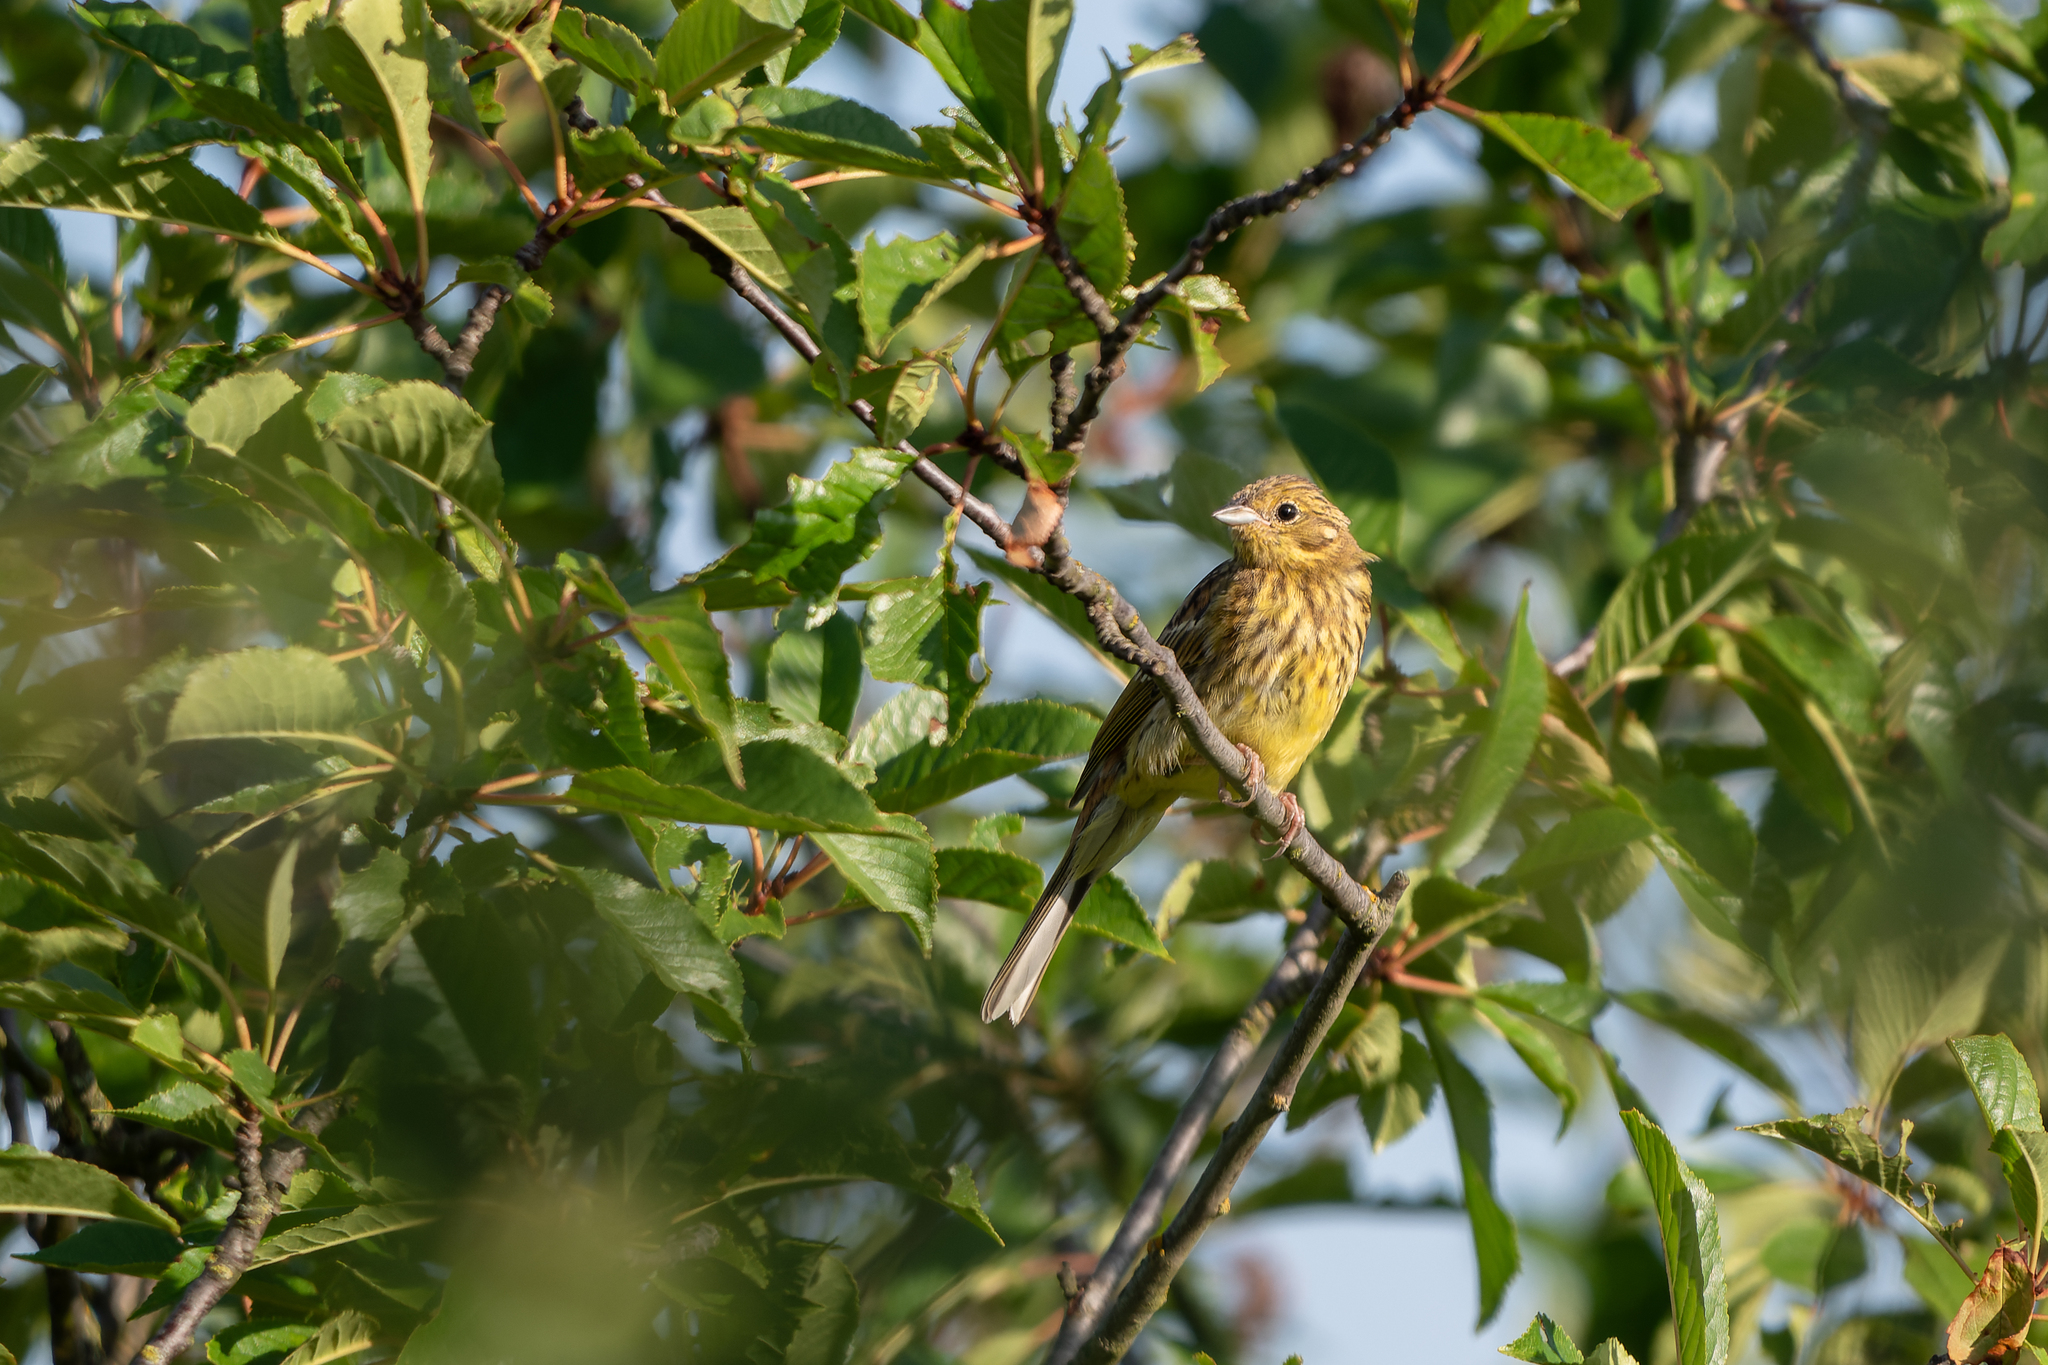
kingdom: Animalia
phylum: Chordata
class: Aves
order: Passeriformes
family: Emberizidae
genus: Emberiza
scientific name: Emberiza citrinella
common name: Yellowhammer
